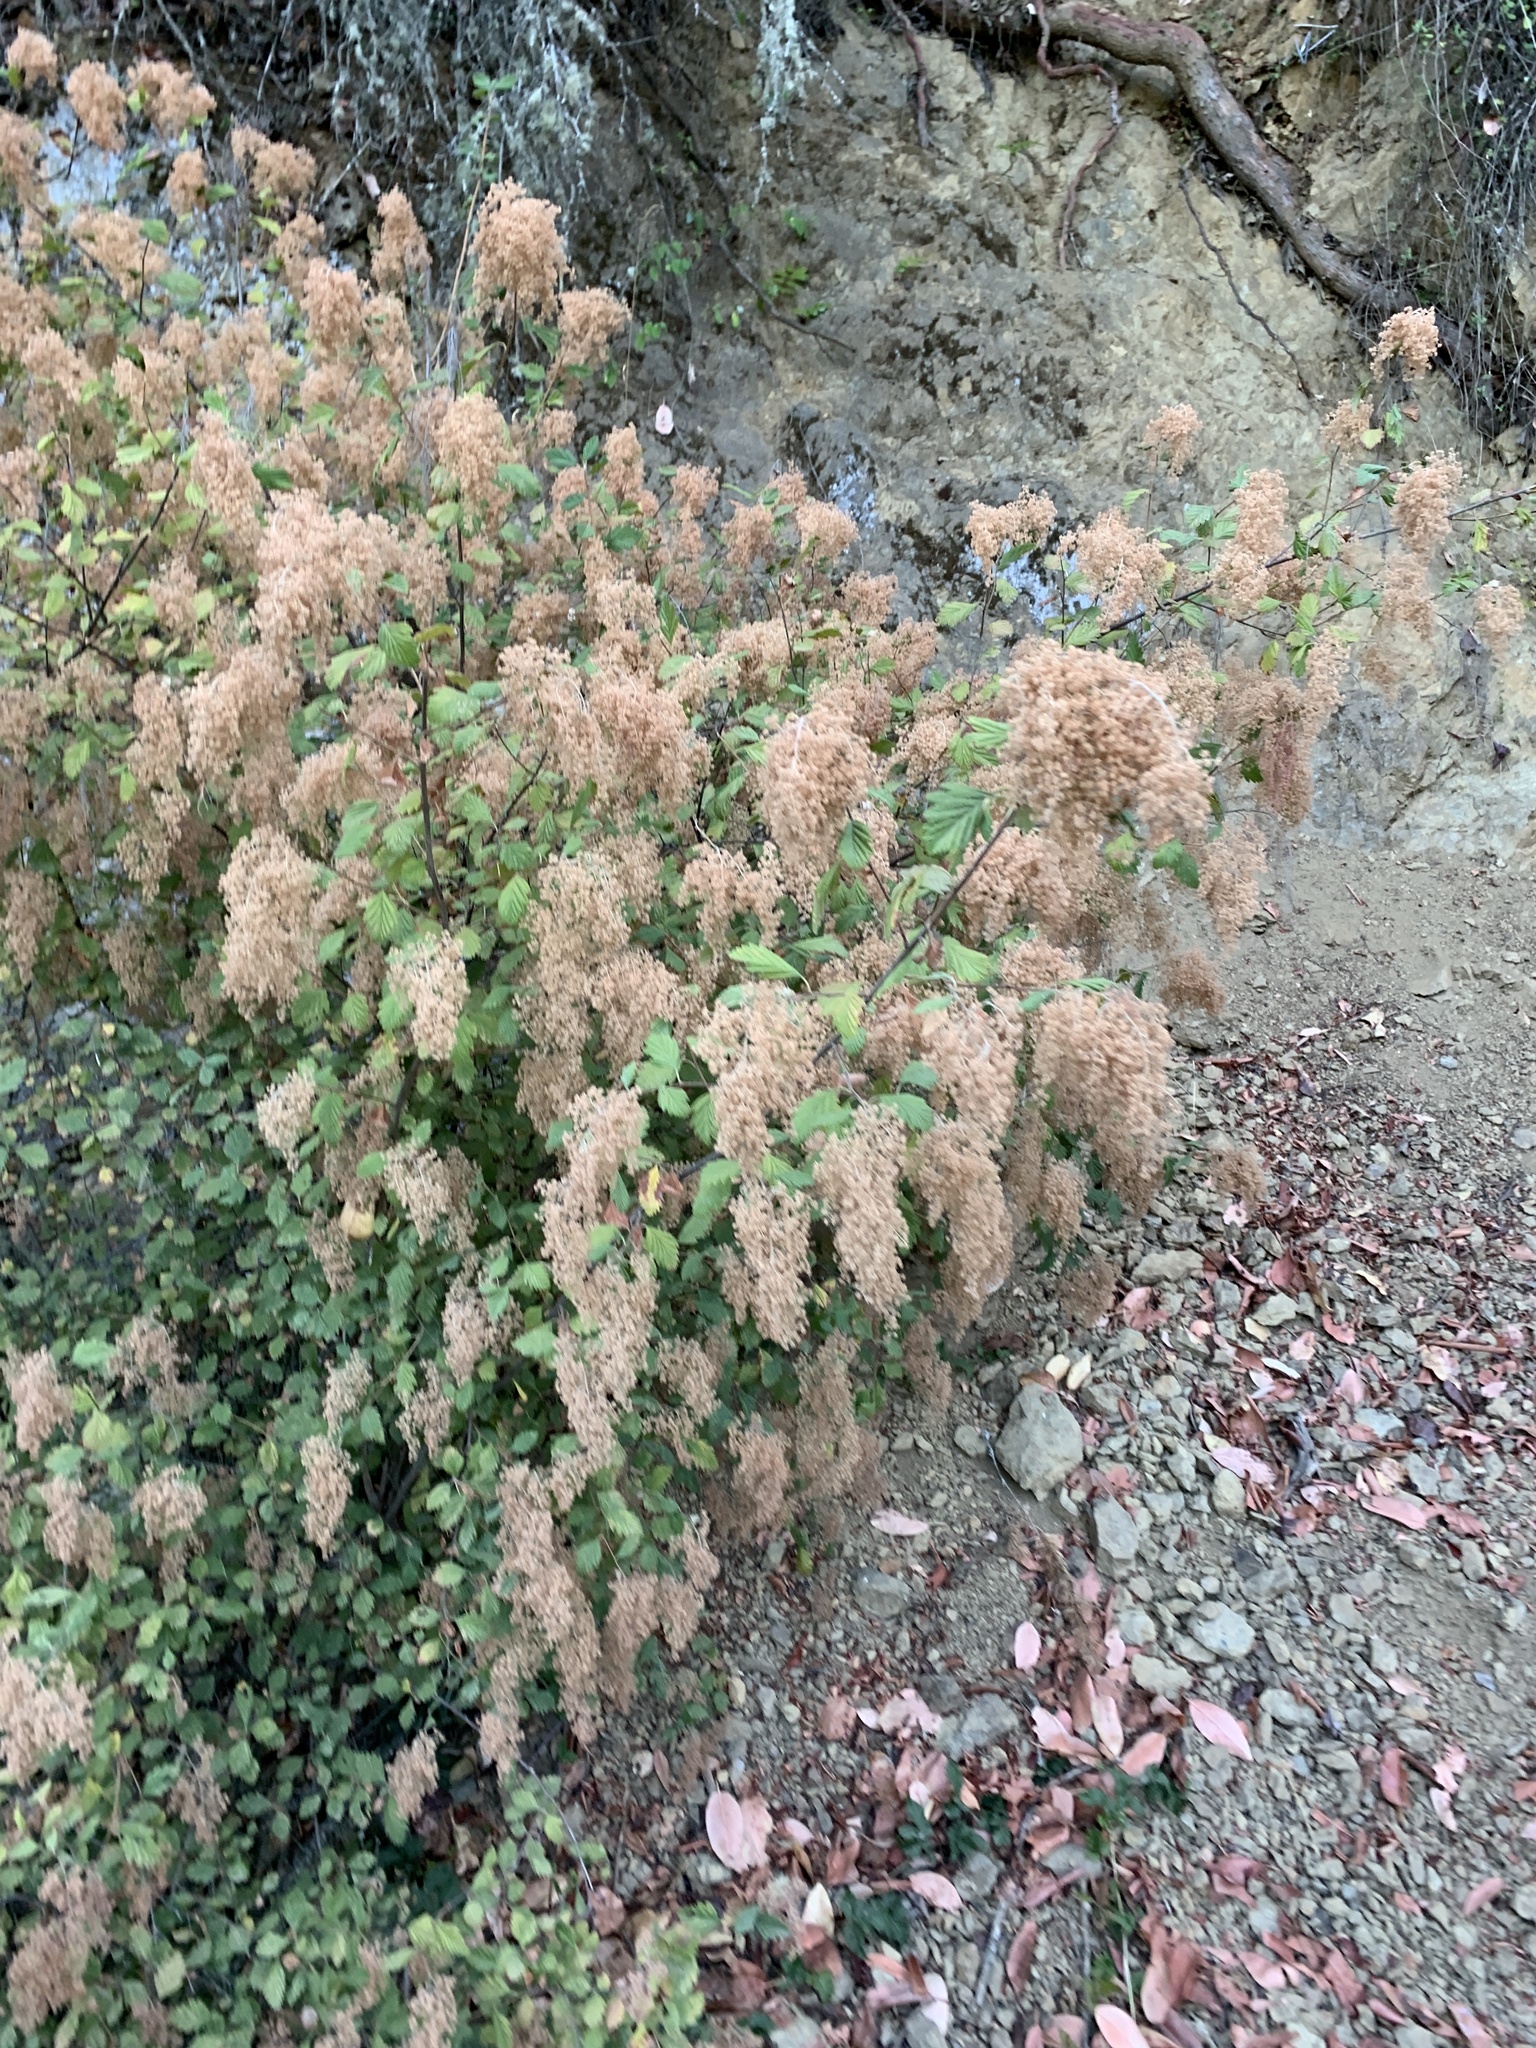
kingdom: Plantae
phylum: Tracheophyta
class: Magnoliopsida
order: Rosales
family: Rosaceae
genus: Holodiscus
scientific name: Holodiscus discolor
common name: Oceanspray
